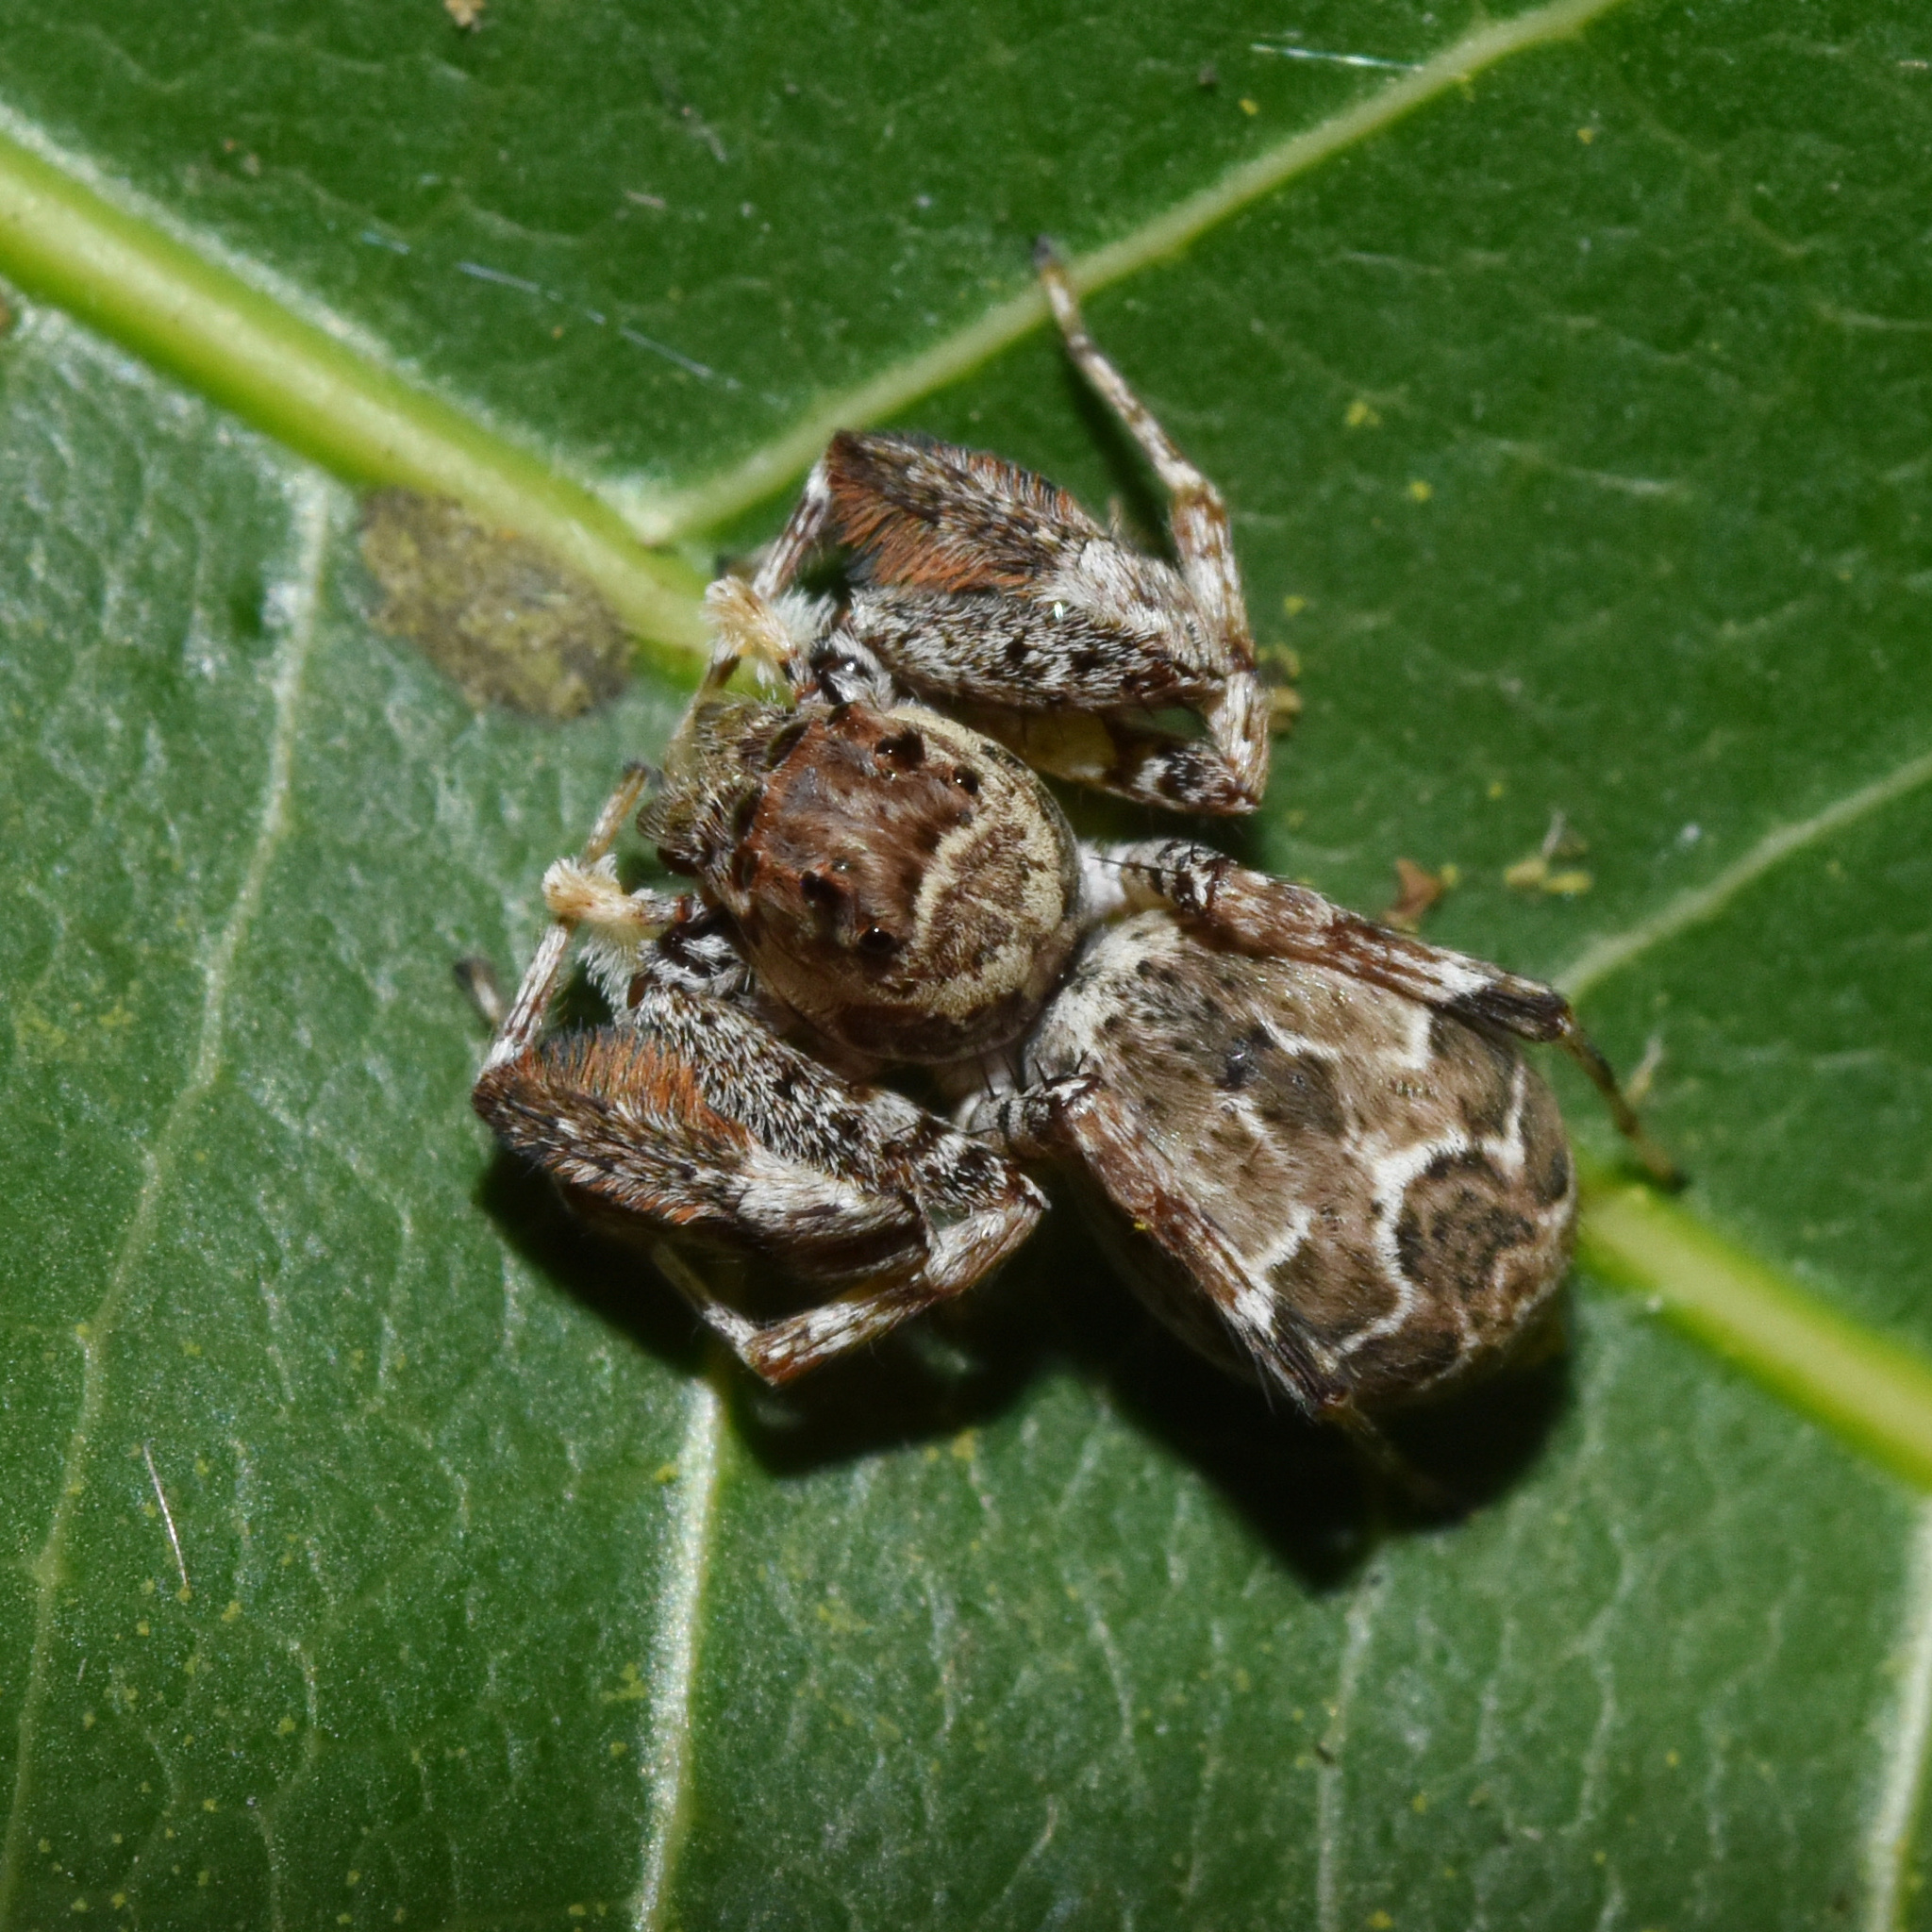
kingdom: Animalia
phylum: Arthropoda
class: Arachnida
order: Araneae
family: Salticidae
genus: Veissella
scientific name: Veissella durbani
